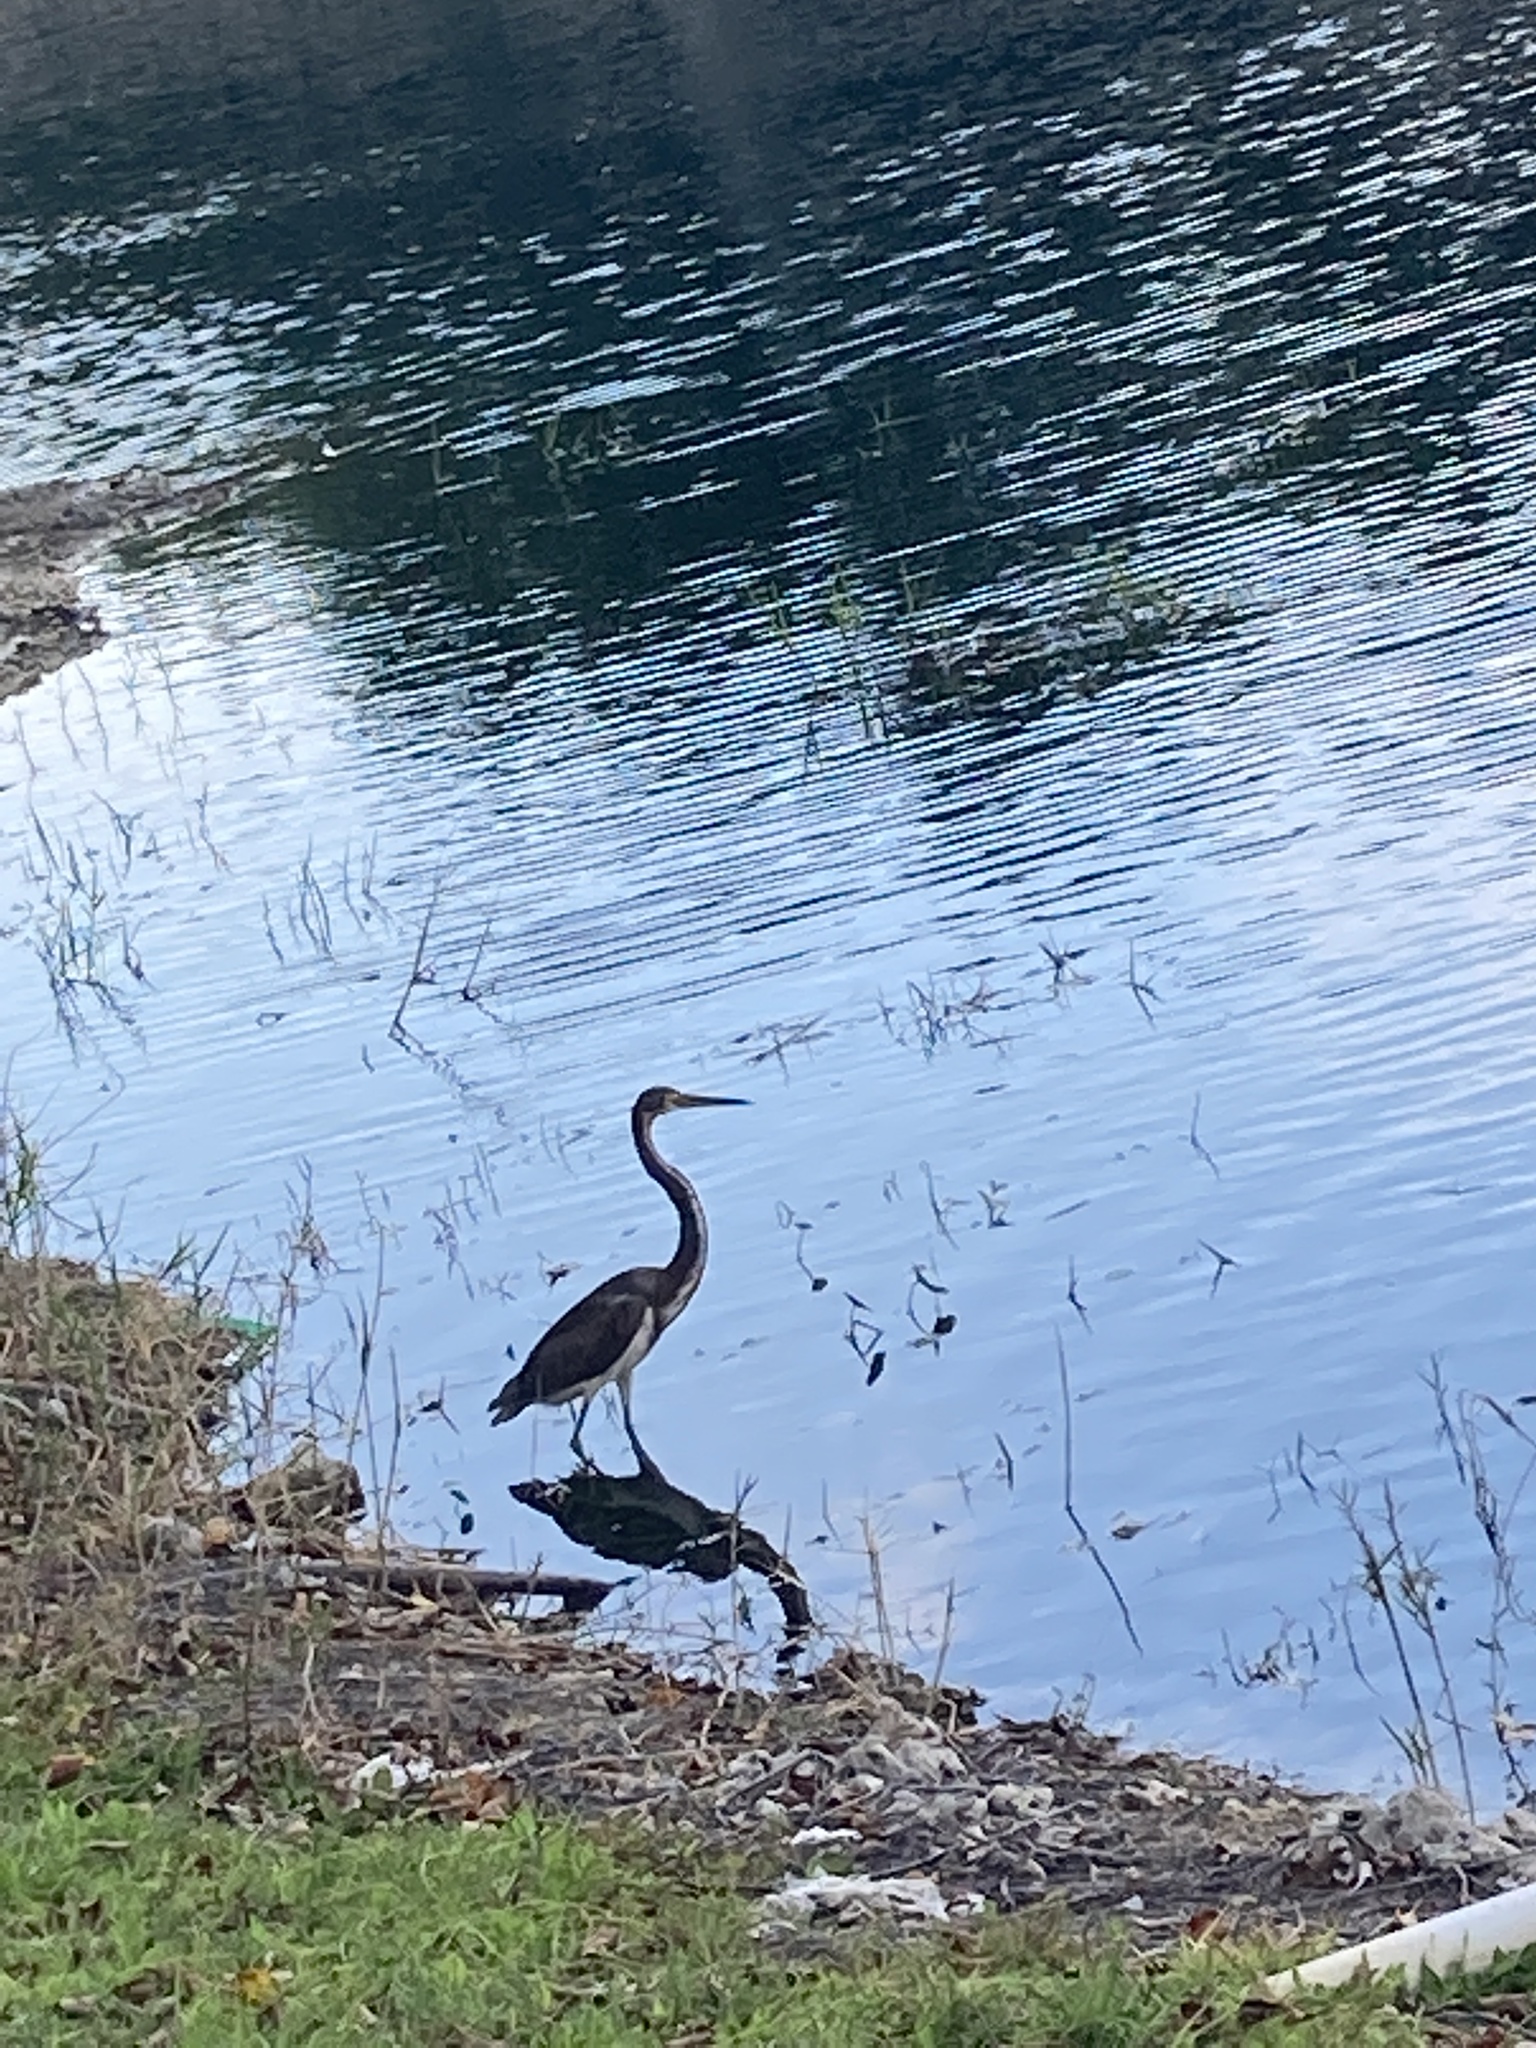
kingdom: Animalia
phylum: Chordata
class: Aves
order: Pelecaniformes
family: Ardeidae
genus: Egretta
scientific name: Egretta tricolor
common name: Tricolored heron
